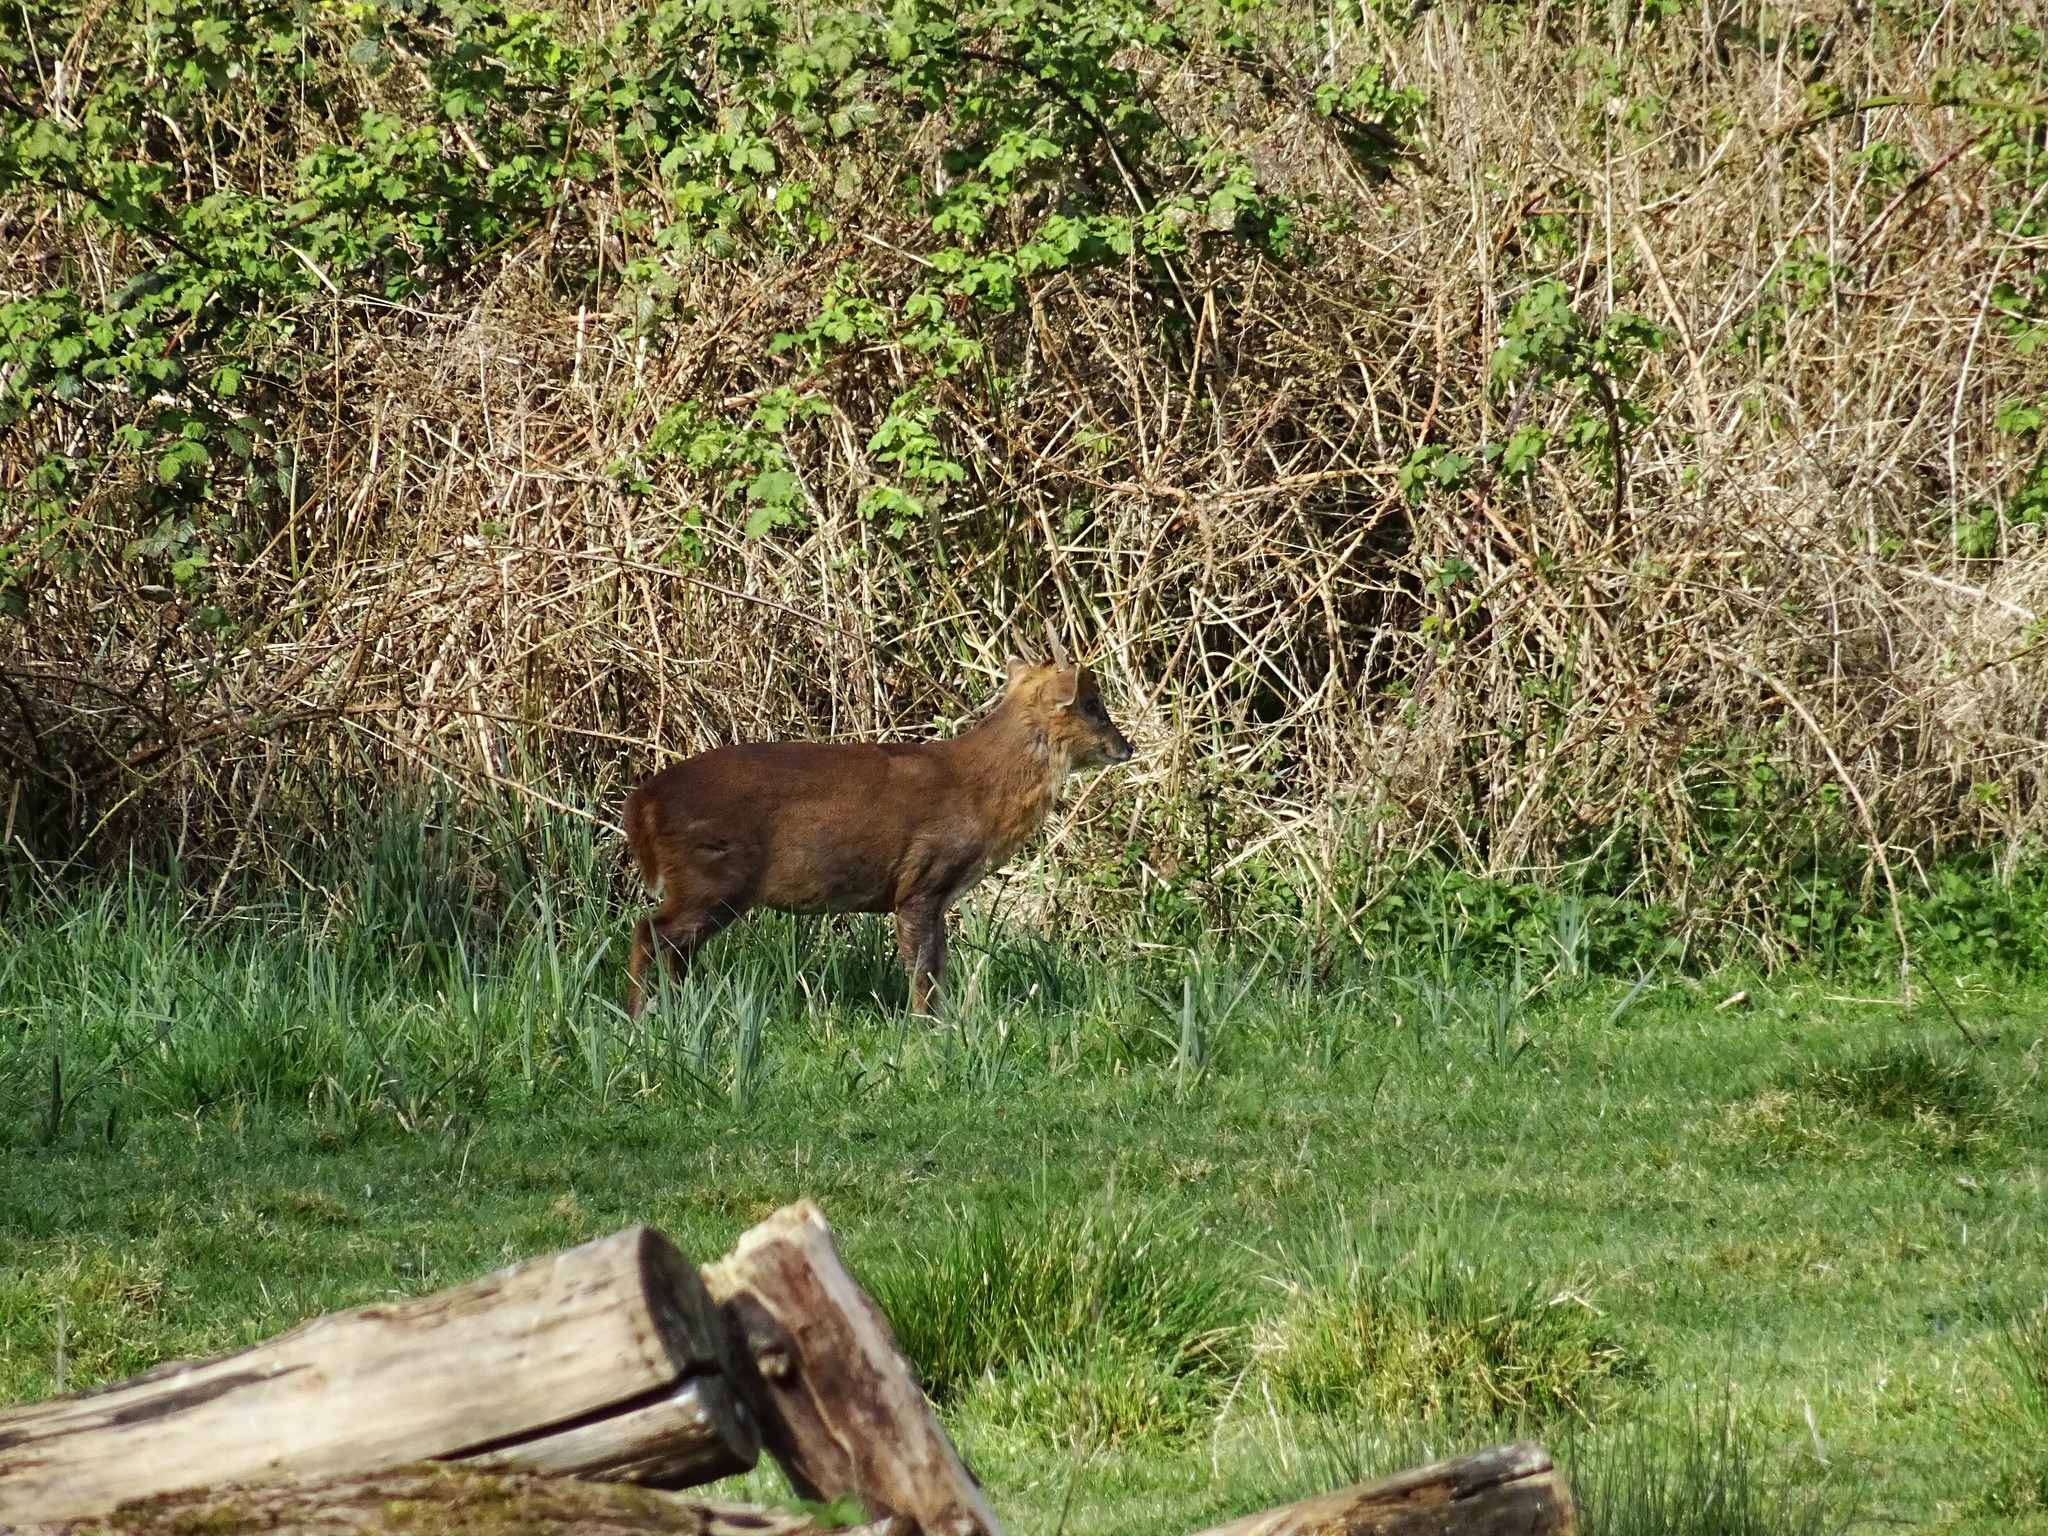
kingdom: Animalia
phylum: Chordata
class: Mammalia
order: Artiodactyla
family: Cervidae
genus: Muntiacus
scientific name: Muntiacus reevesi
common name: Reeves' muntjac
